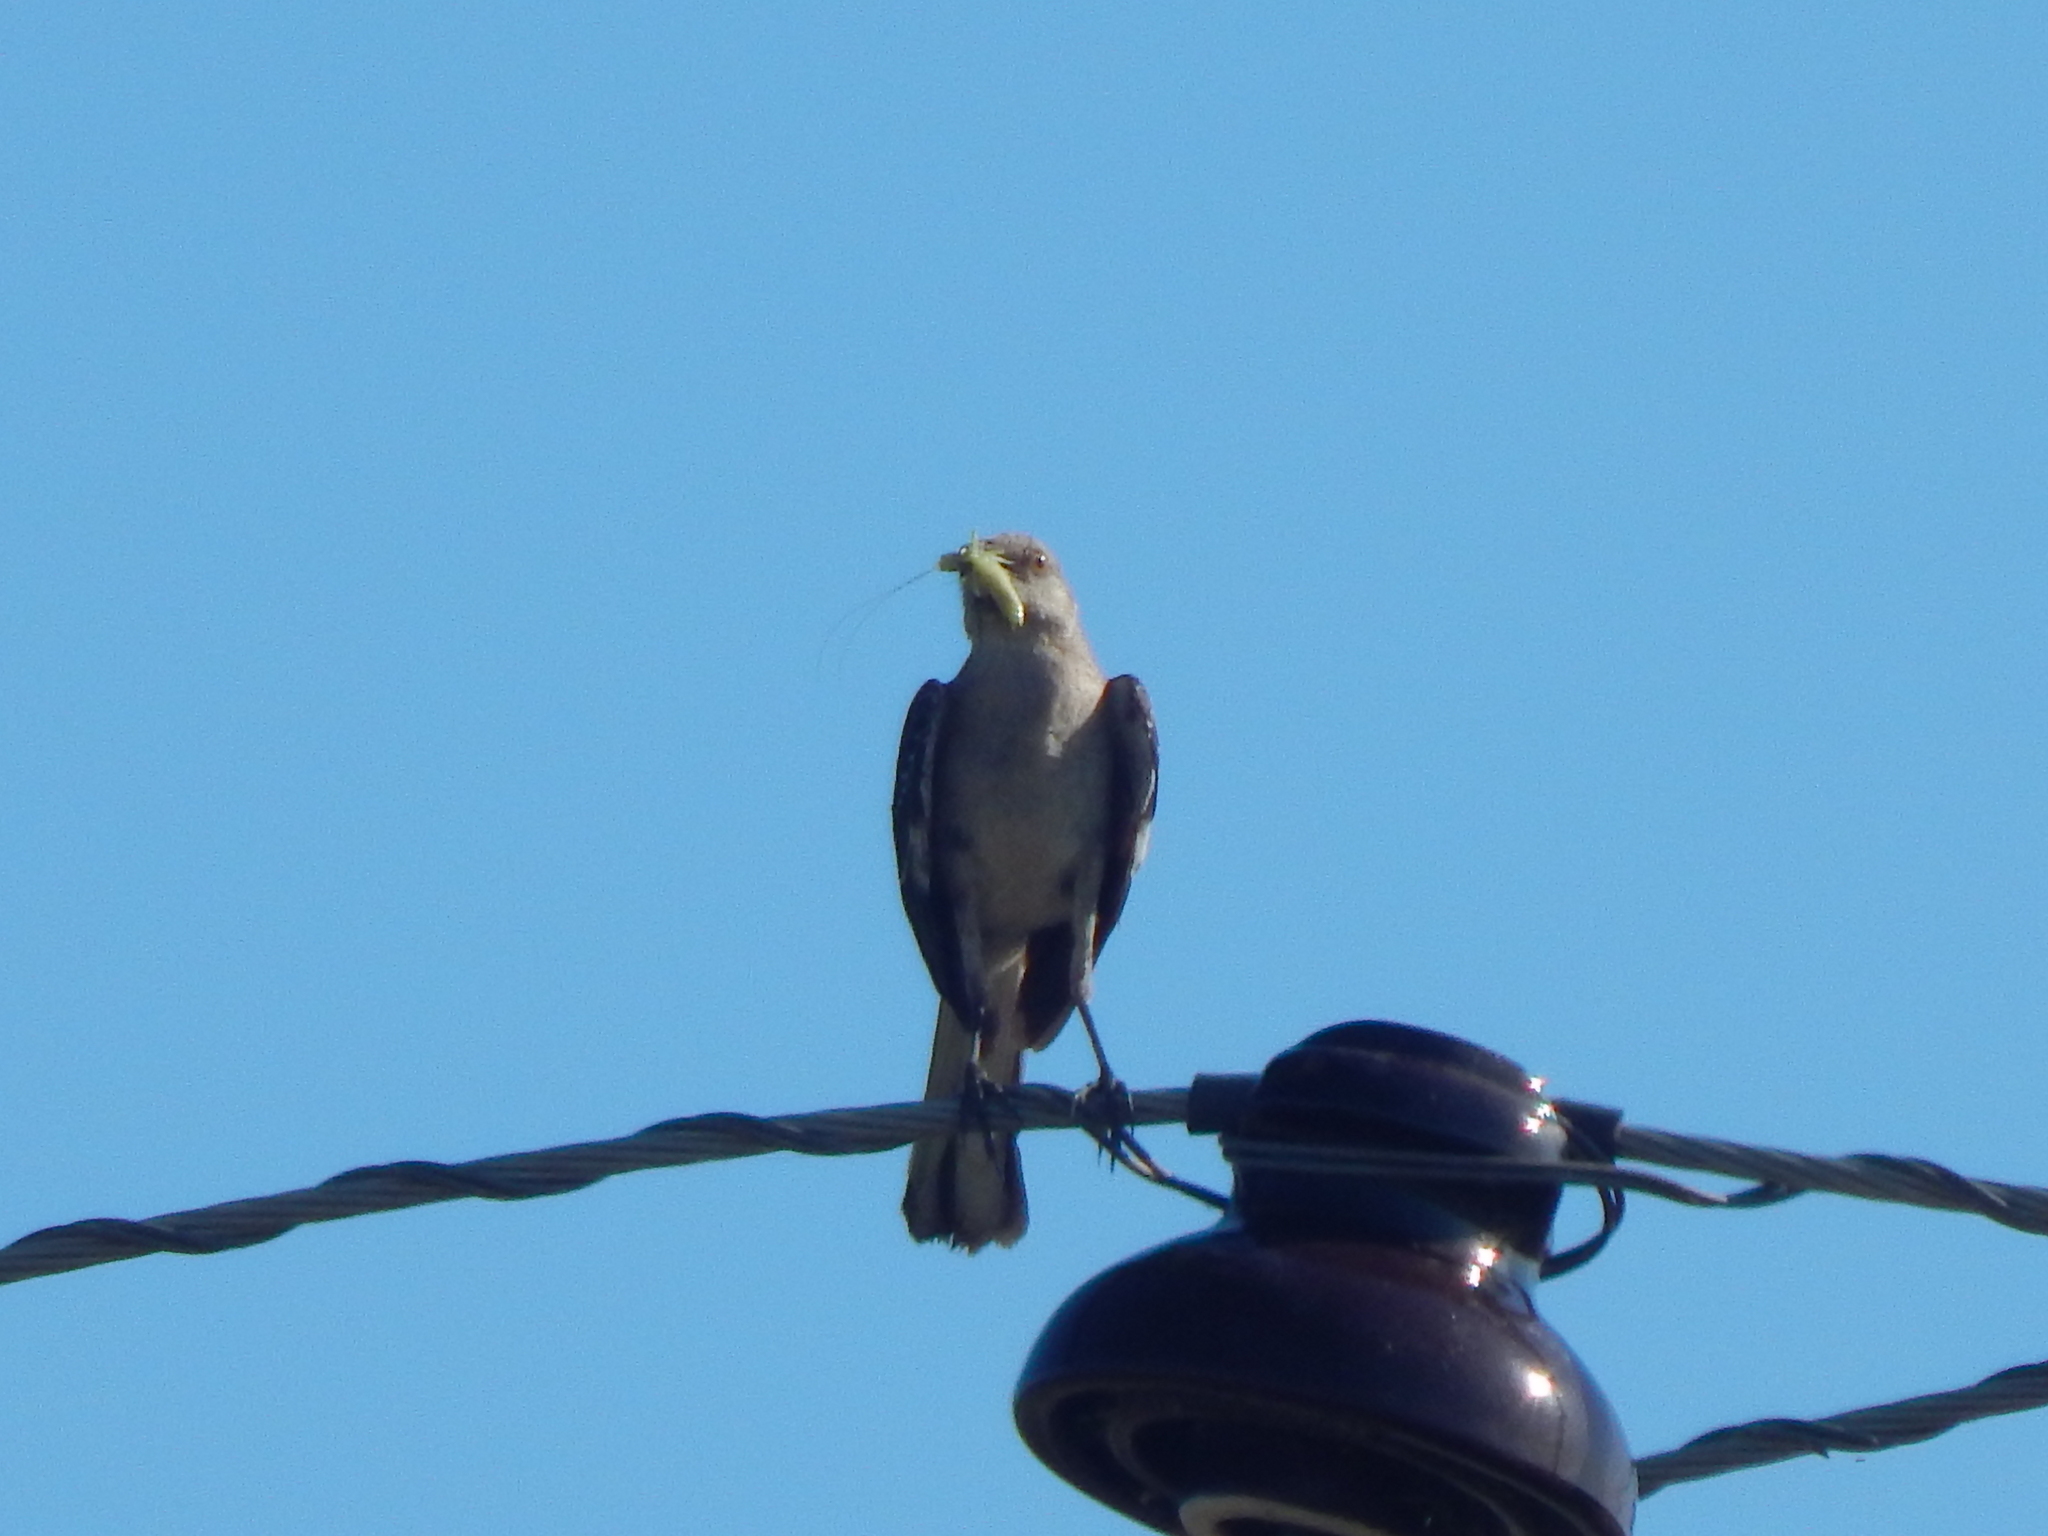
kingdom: Animalia
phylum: Chordata
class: Aves
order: Passeriformes
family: Mimidae
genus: Mimus
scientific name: Mimus polyglottos
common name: Northern mockingbird
